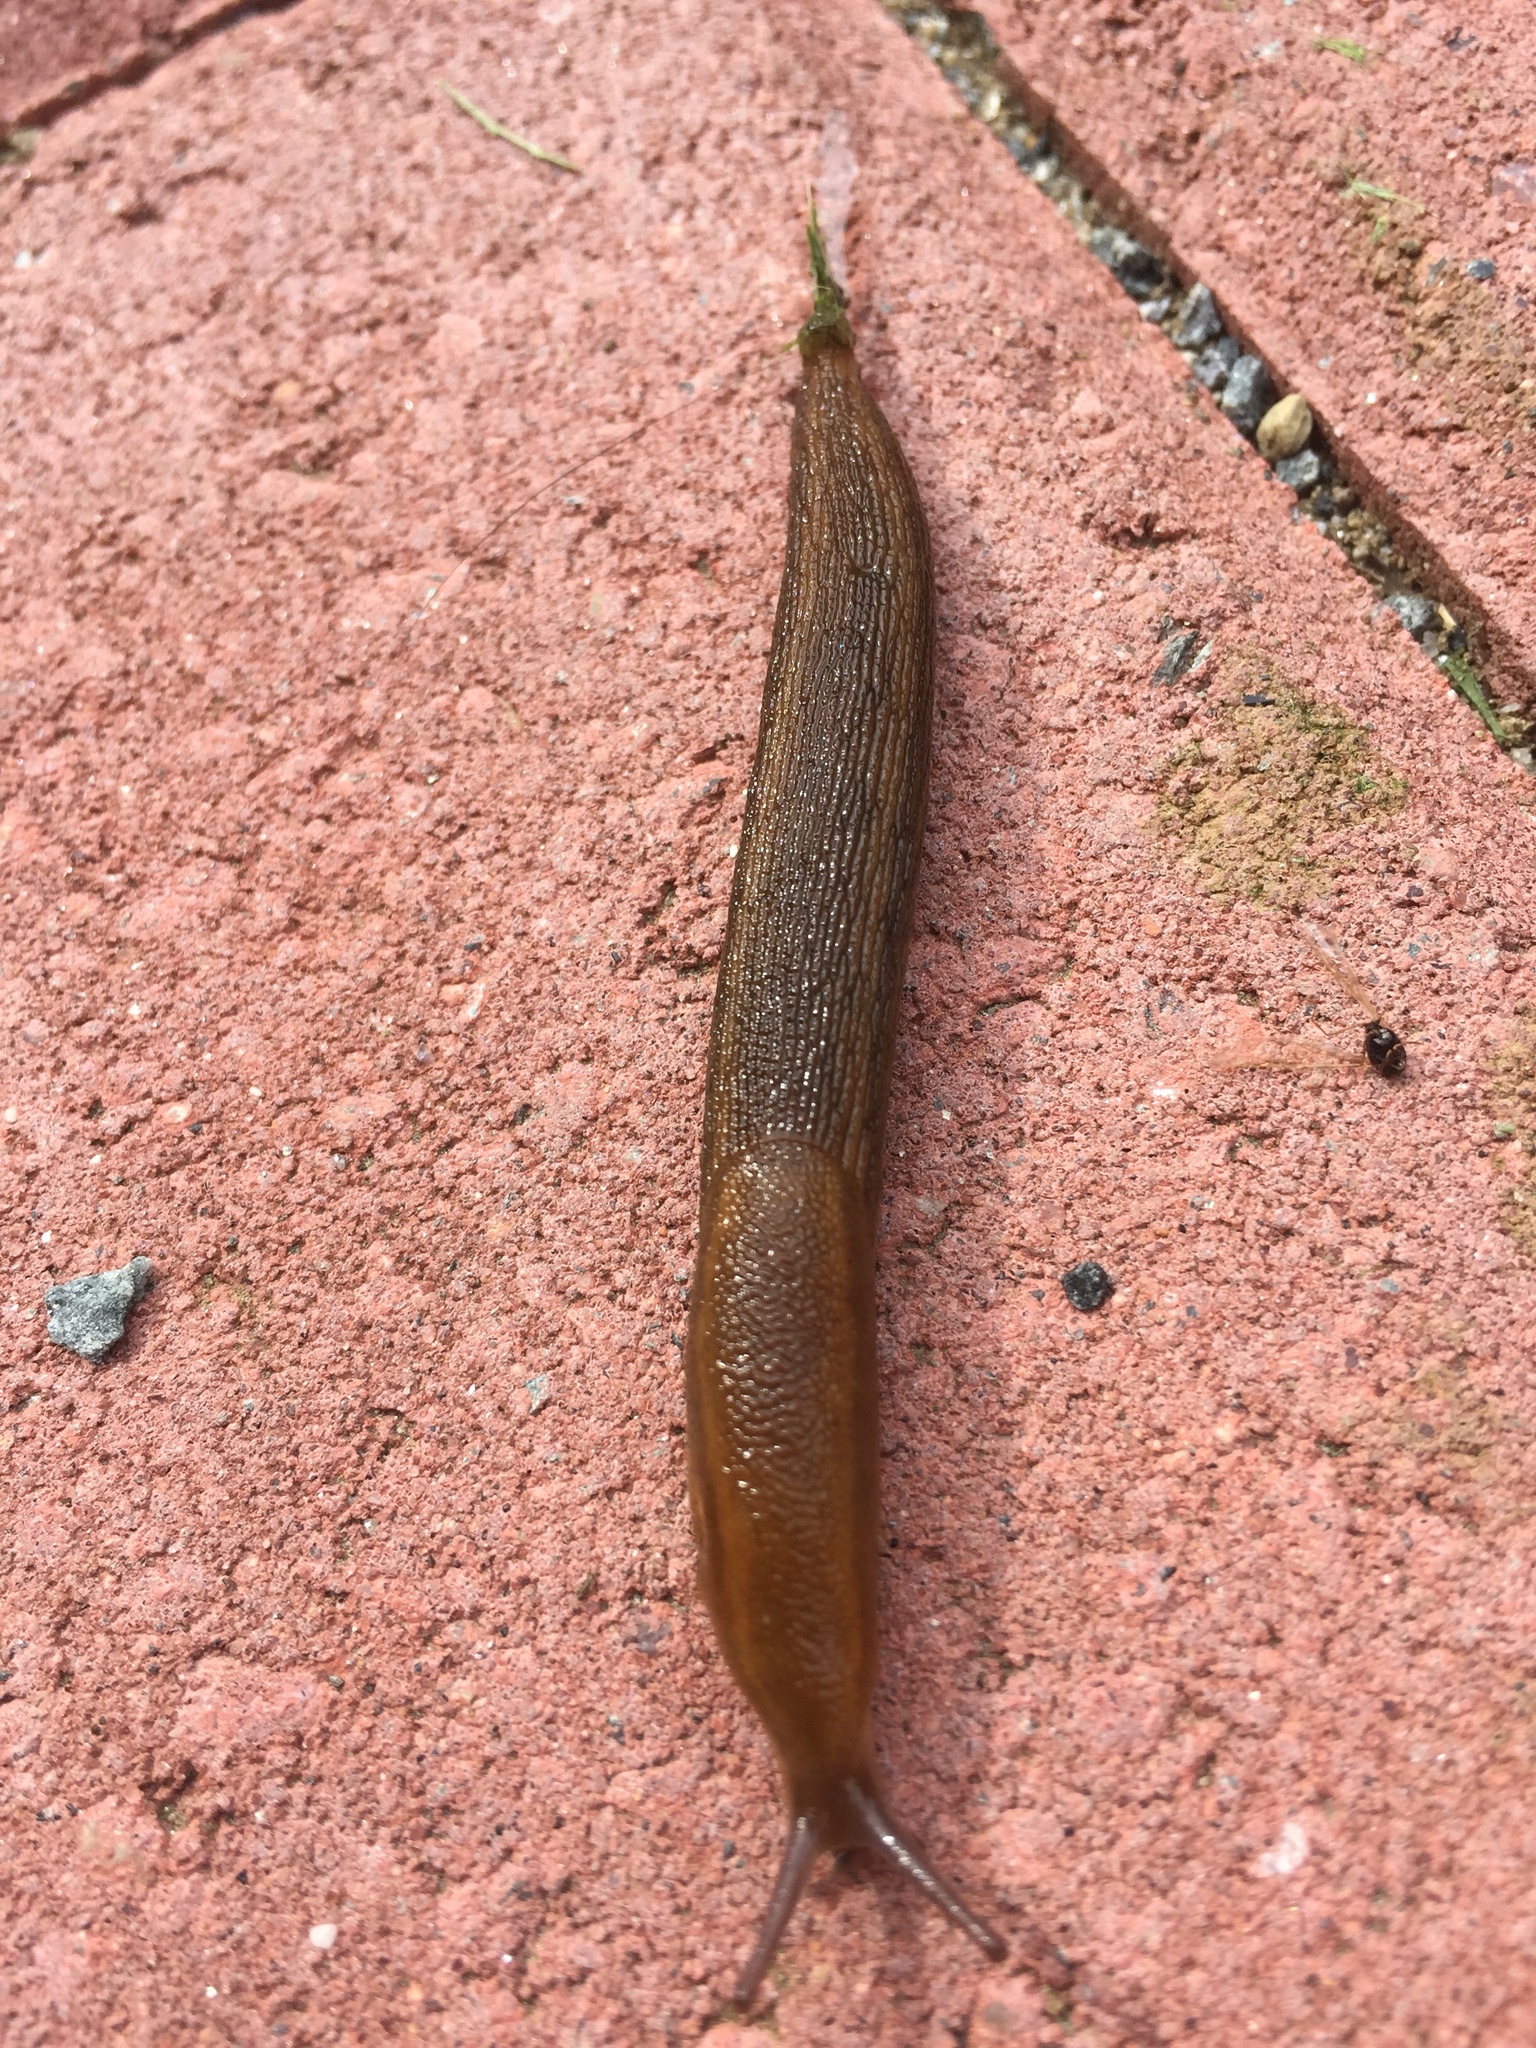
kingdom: Animalia
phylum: Mollusca
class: Gastropoda
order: Stylommatophora
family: Arionidae
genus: Arion
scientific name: Arion
